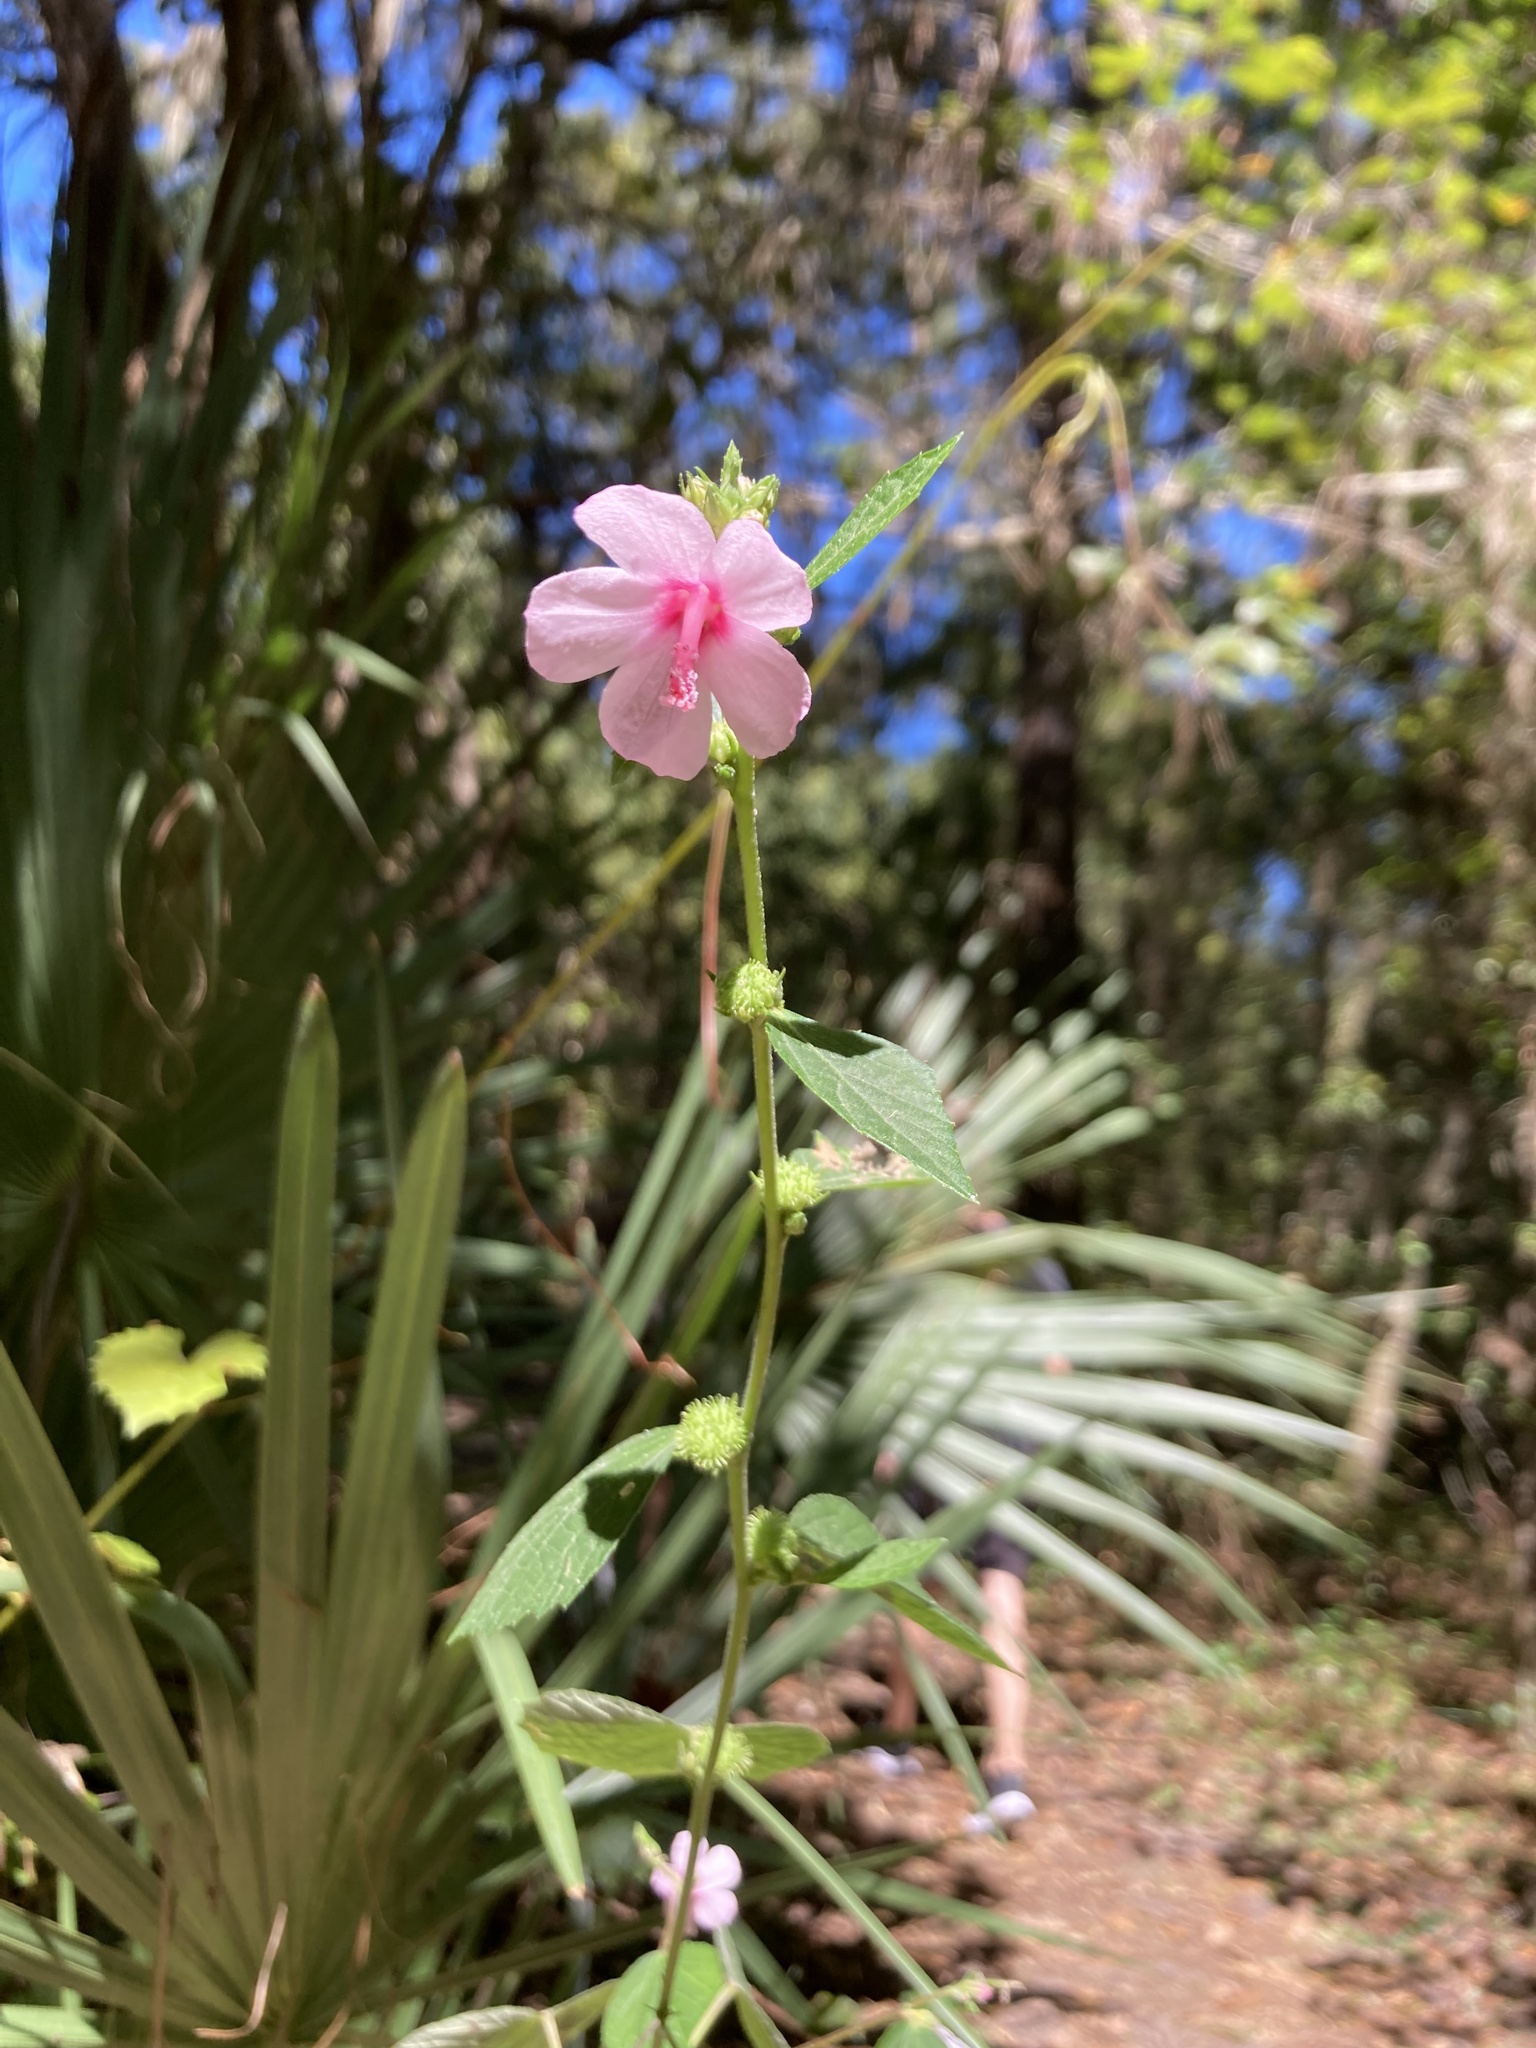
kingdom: Plantae
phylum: Tracheophyta
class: Magnoliopsida
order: Malvales
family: Malvaceae
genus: Urena
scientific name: Urena lobata
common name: Caesarweed
